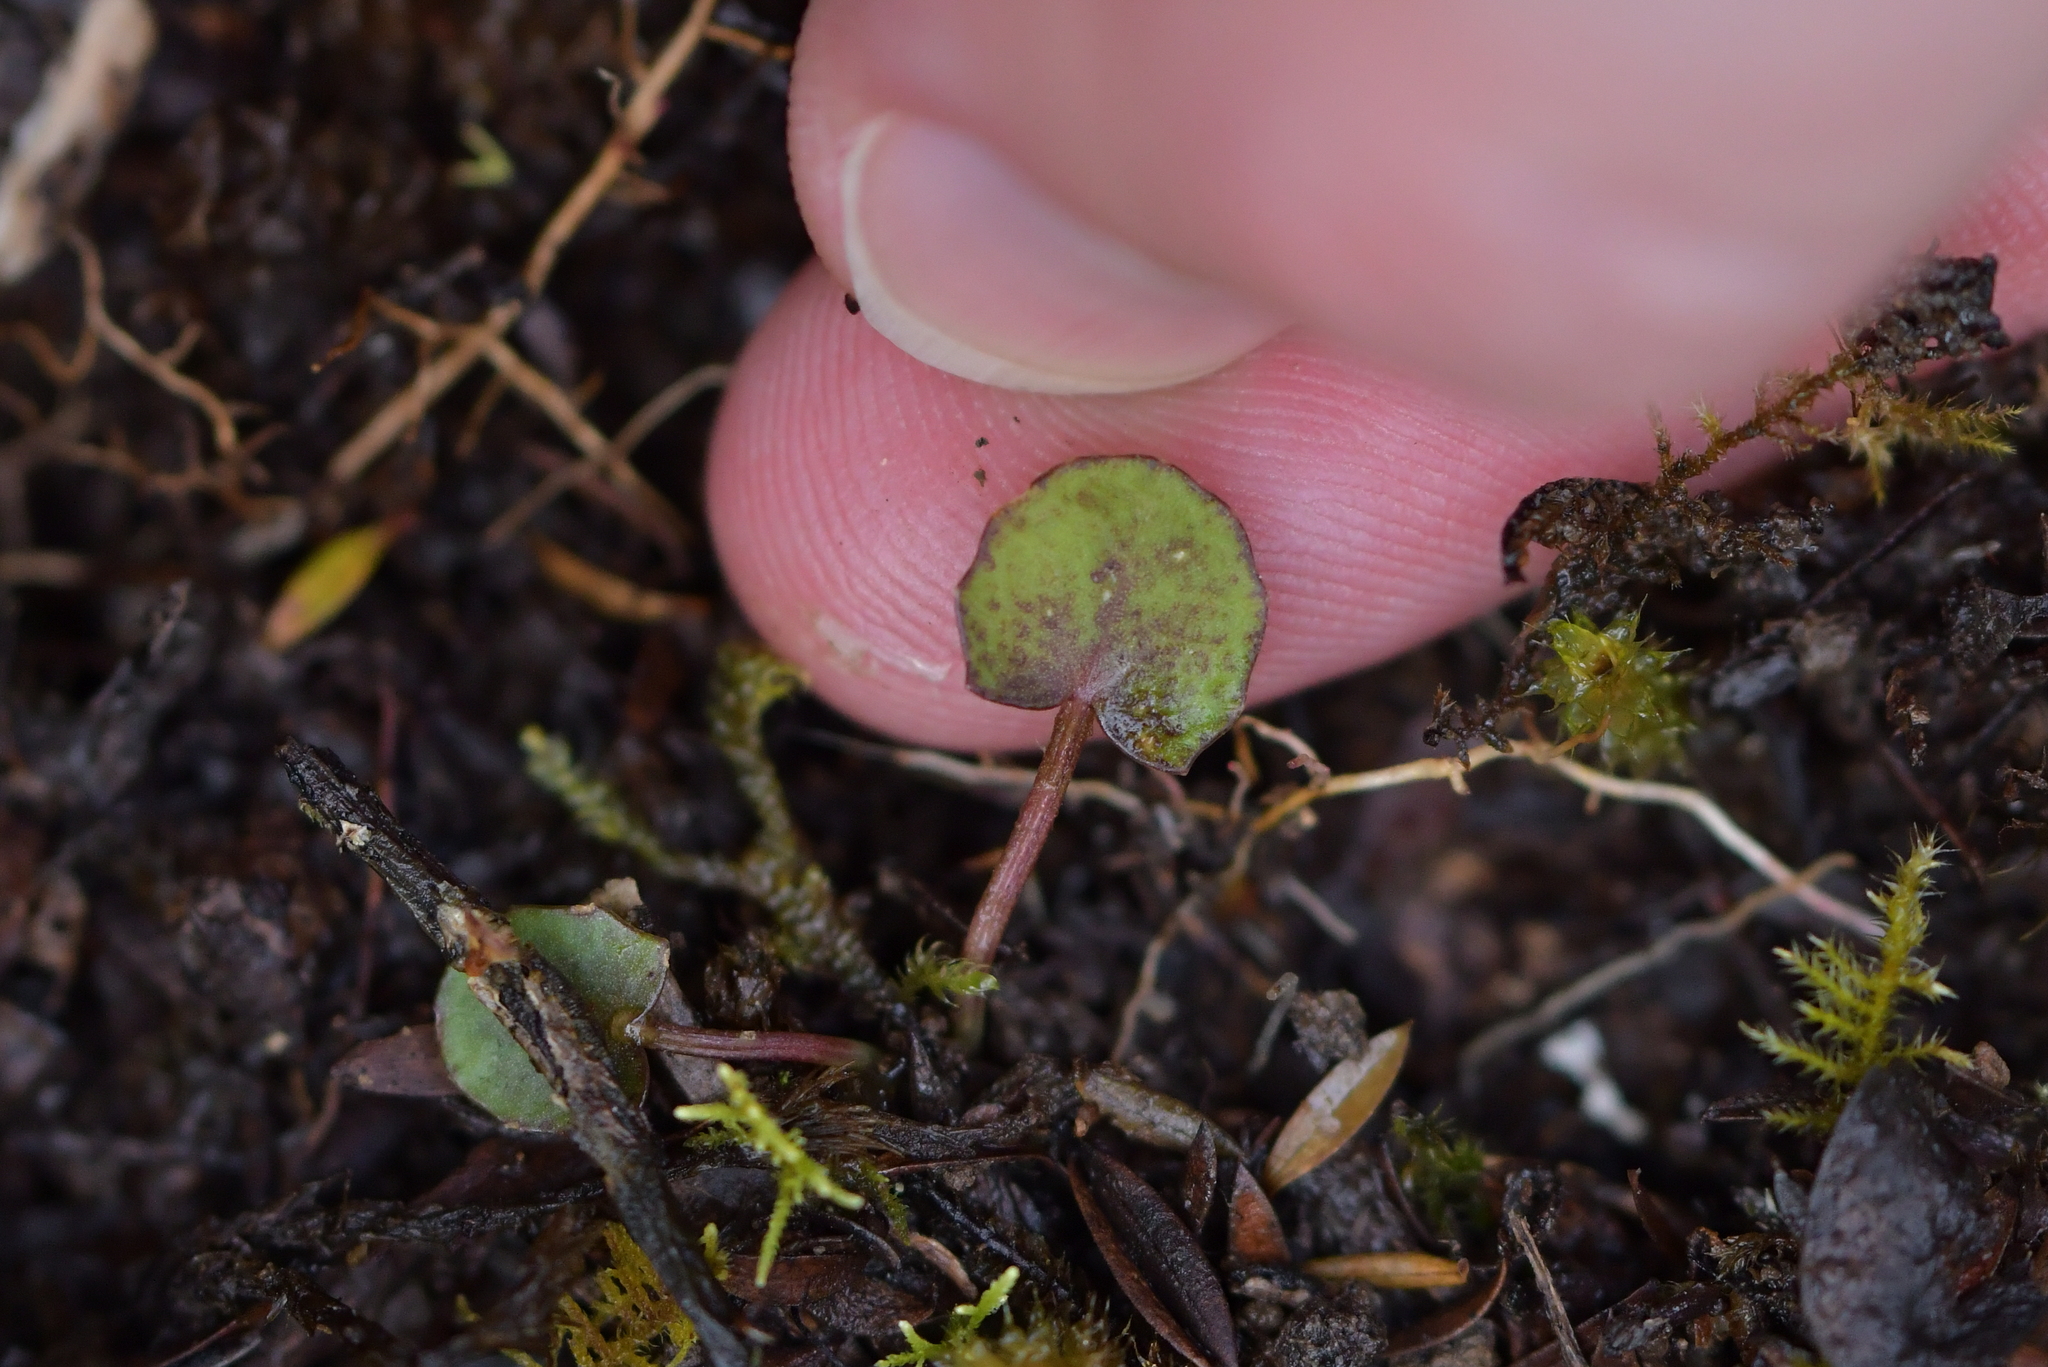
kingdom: Plantae
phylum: Tracheophyta
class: Magnoliopsida
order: Apiales
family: Apiaceae
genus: Centella
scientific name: Centella uniflora
